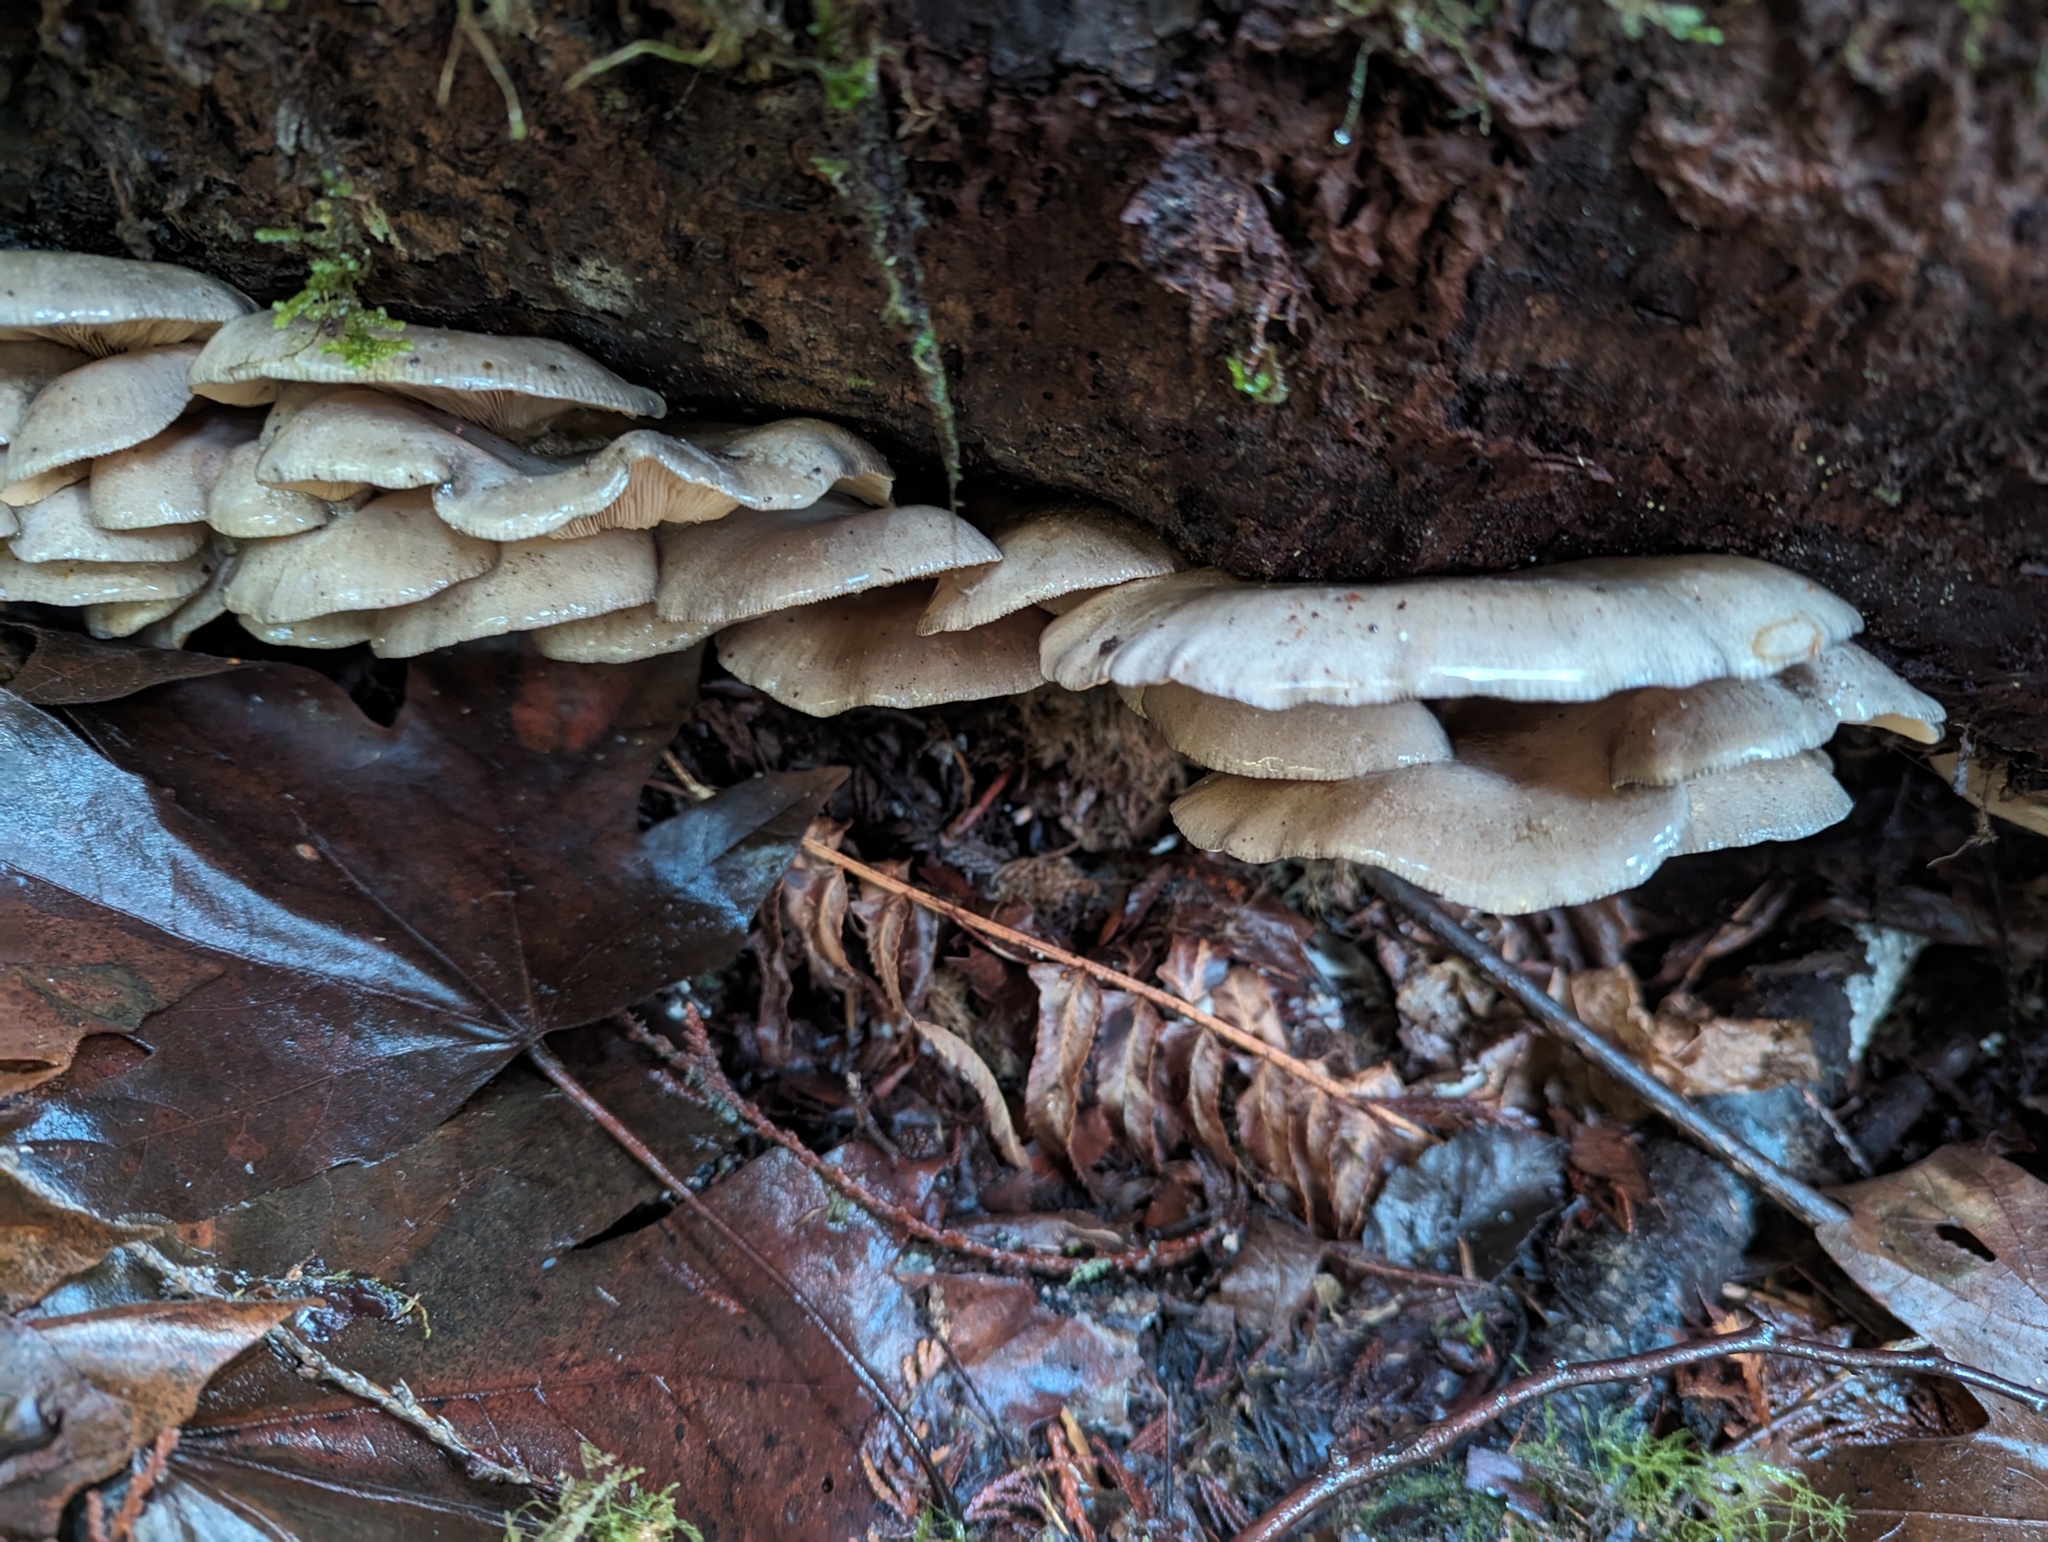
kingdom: Fungi
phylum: Basidiomycota
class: Agaricomycetes
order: Agaricales
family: Sarcomyxaceae
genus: Sarcomyxa
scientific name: Sarcomyxa serotina
